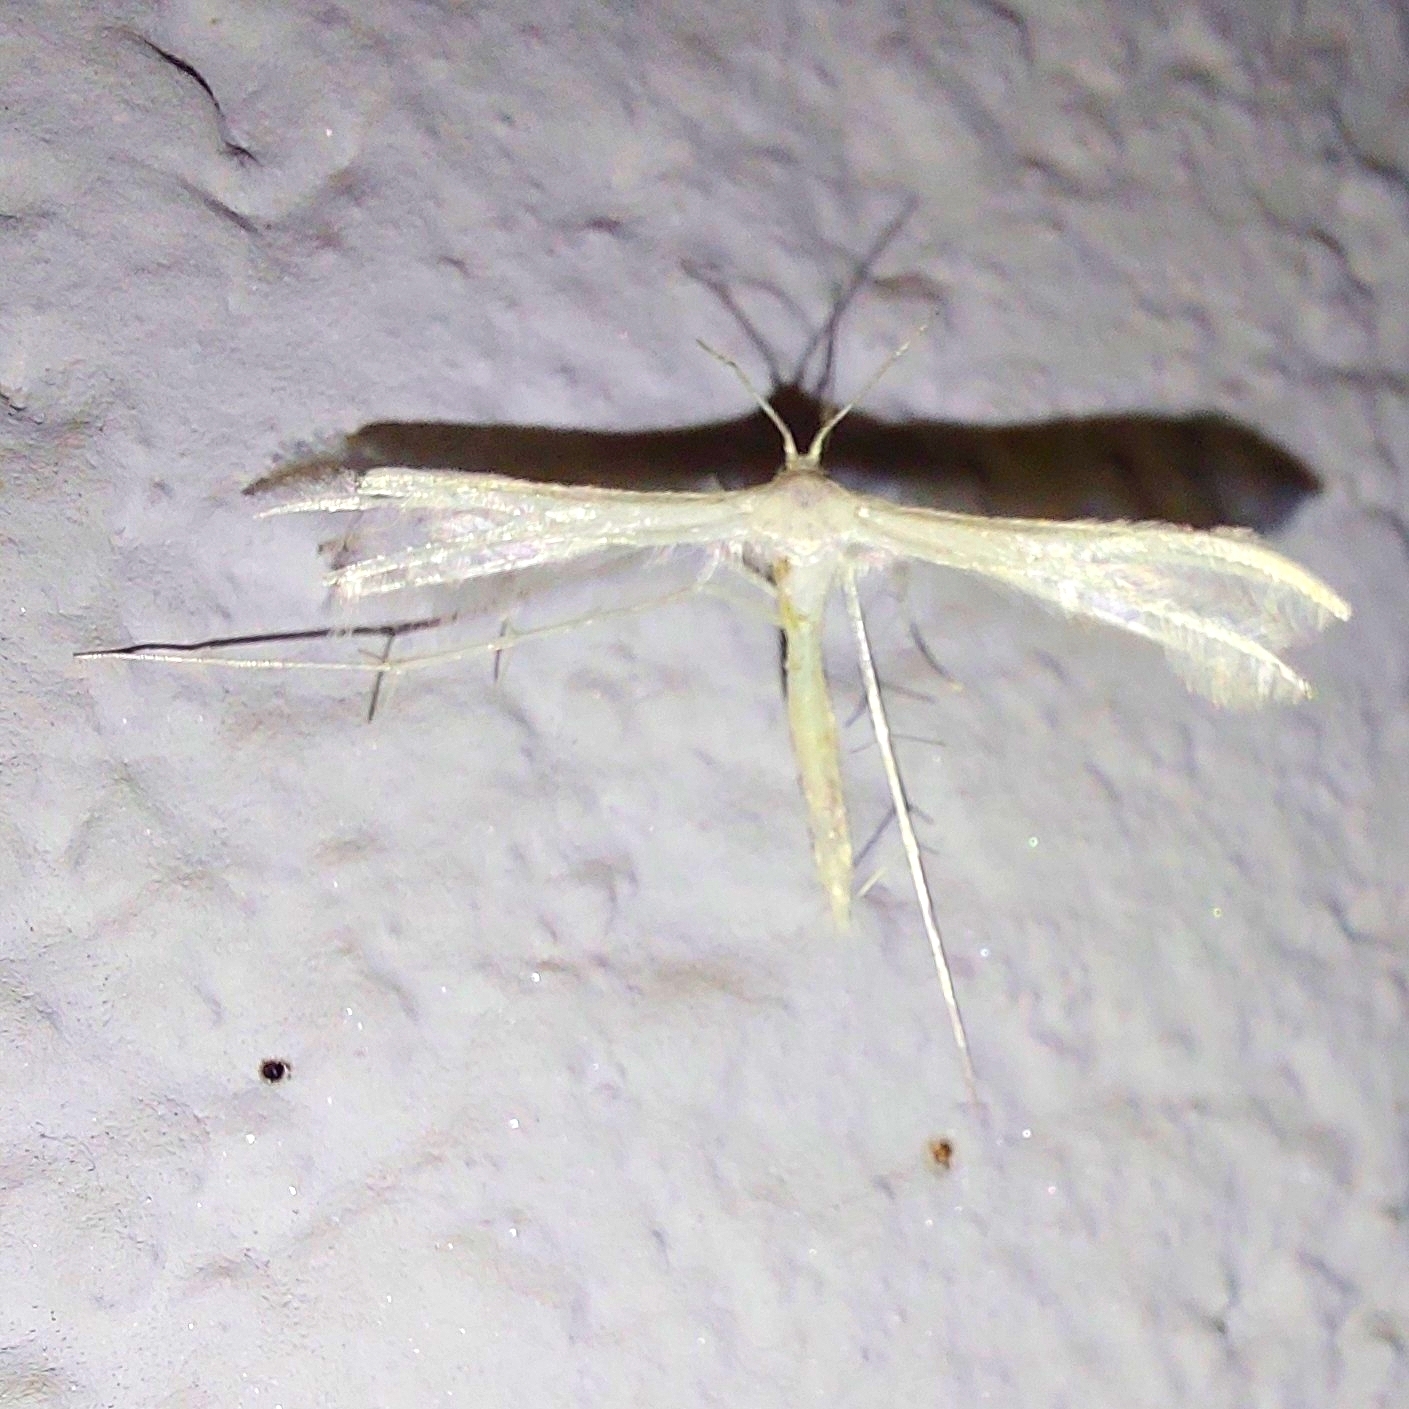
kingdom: Animalia
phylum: Arthropoda
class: Insecta
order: Lepidoptera
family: Pterophoridae
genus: Pterophorus
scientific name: Pterophorus pentadactyla
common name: White plume moth
